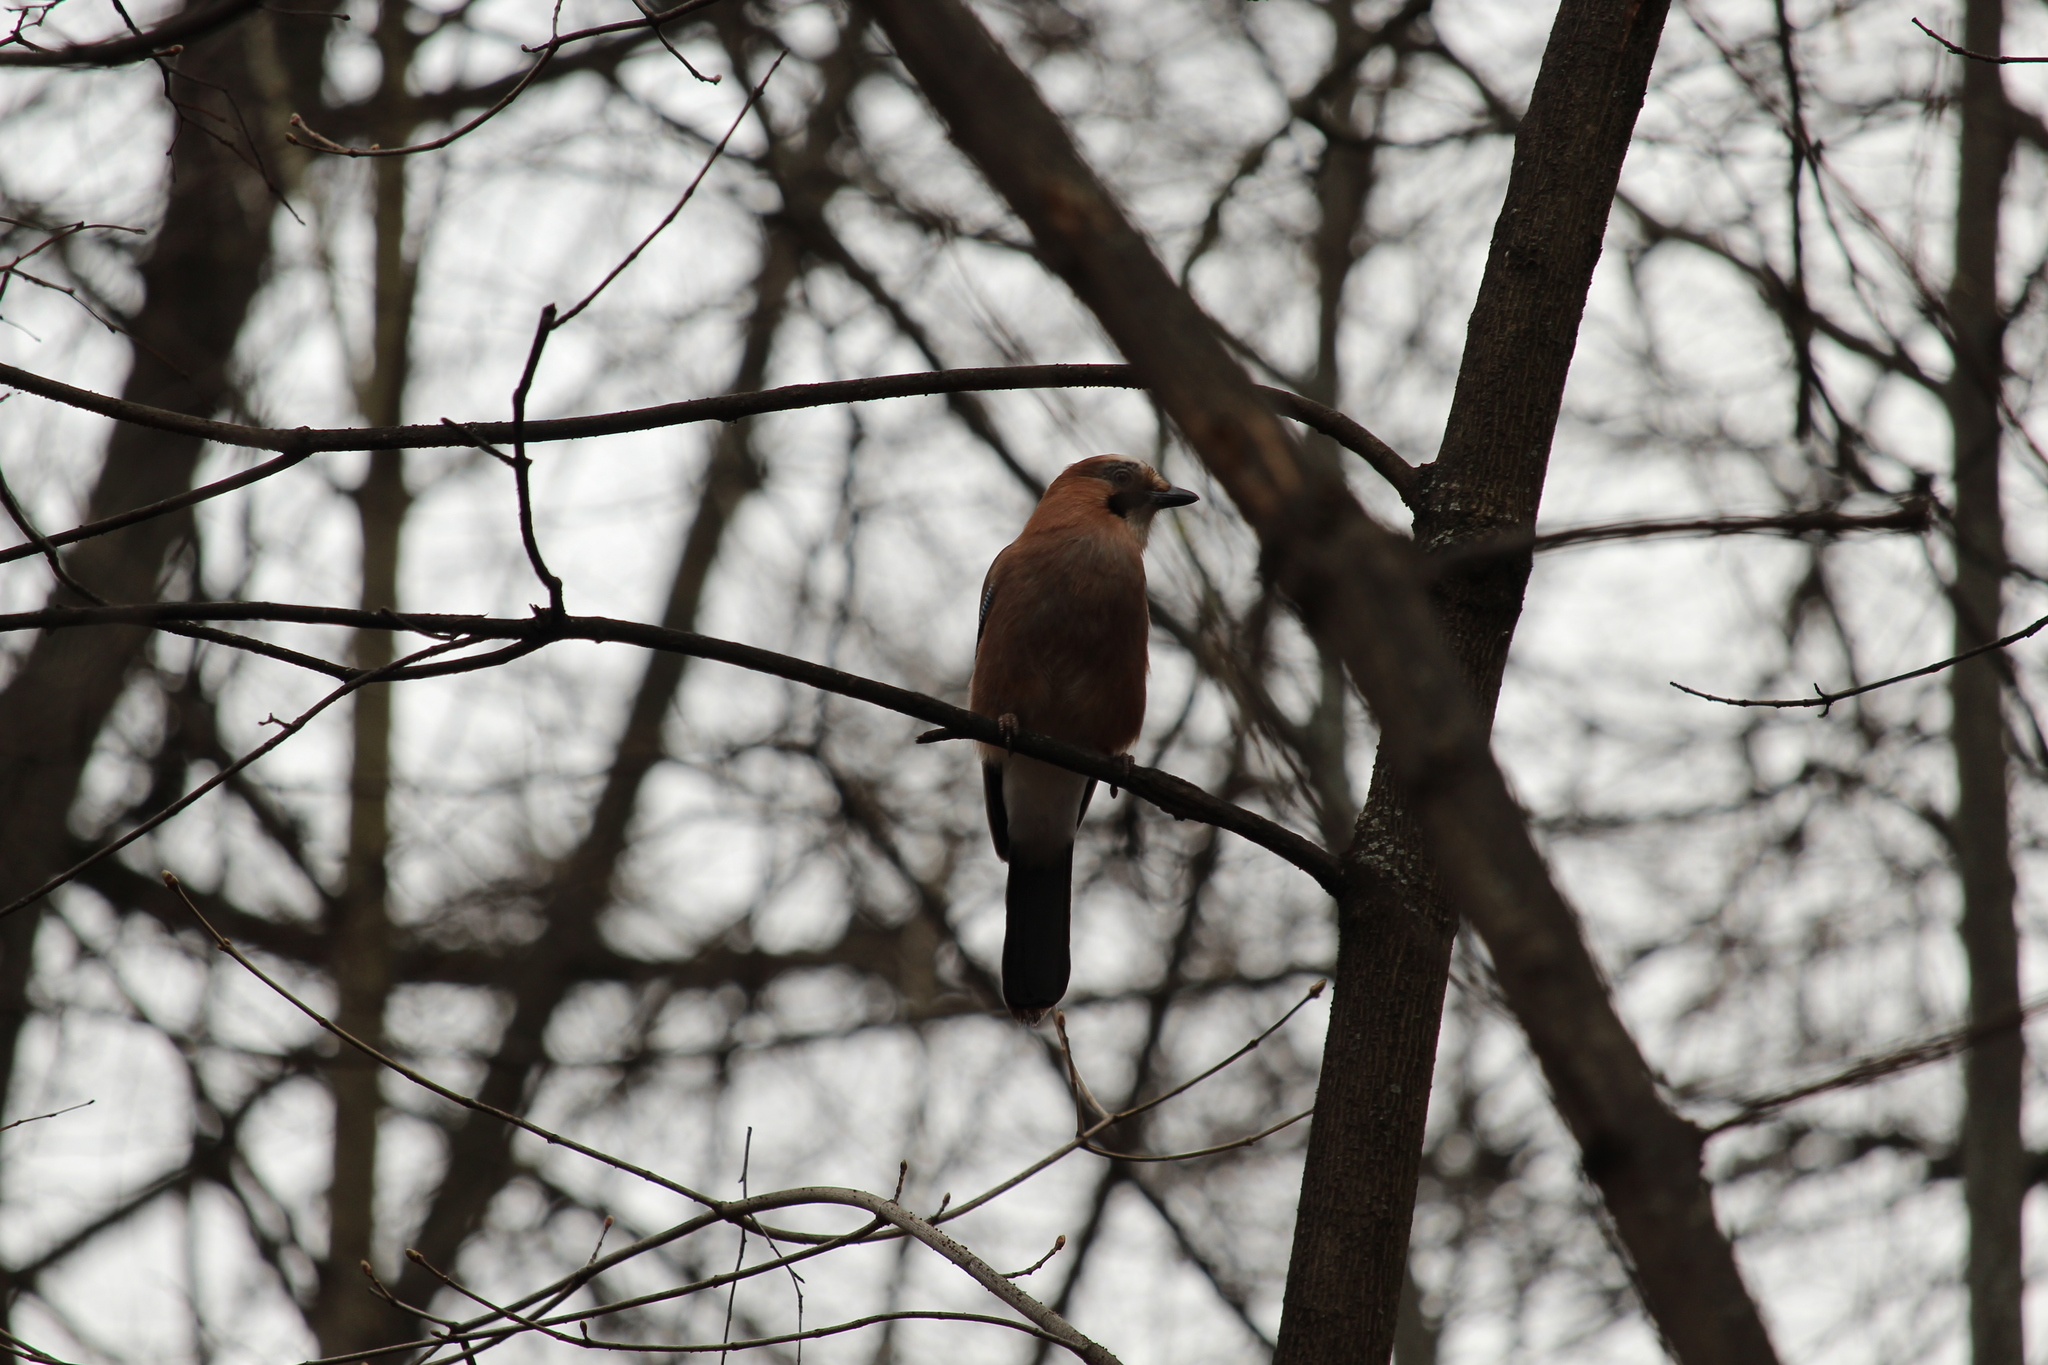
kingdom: Animalia
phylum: Chordata
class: Aves
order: Passeriformes
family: Corvidae
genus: Garrulus
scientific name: Garrulus glandarius
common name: Eurasian jay
